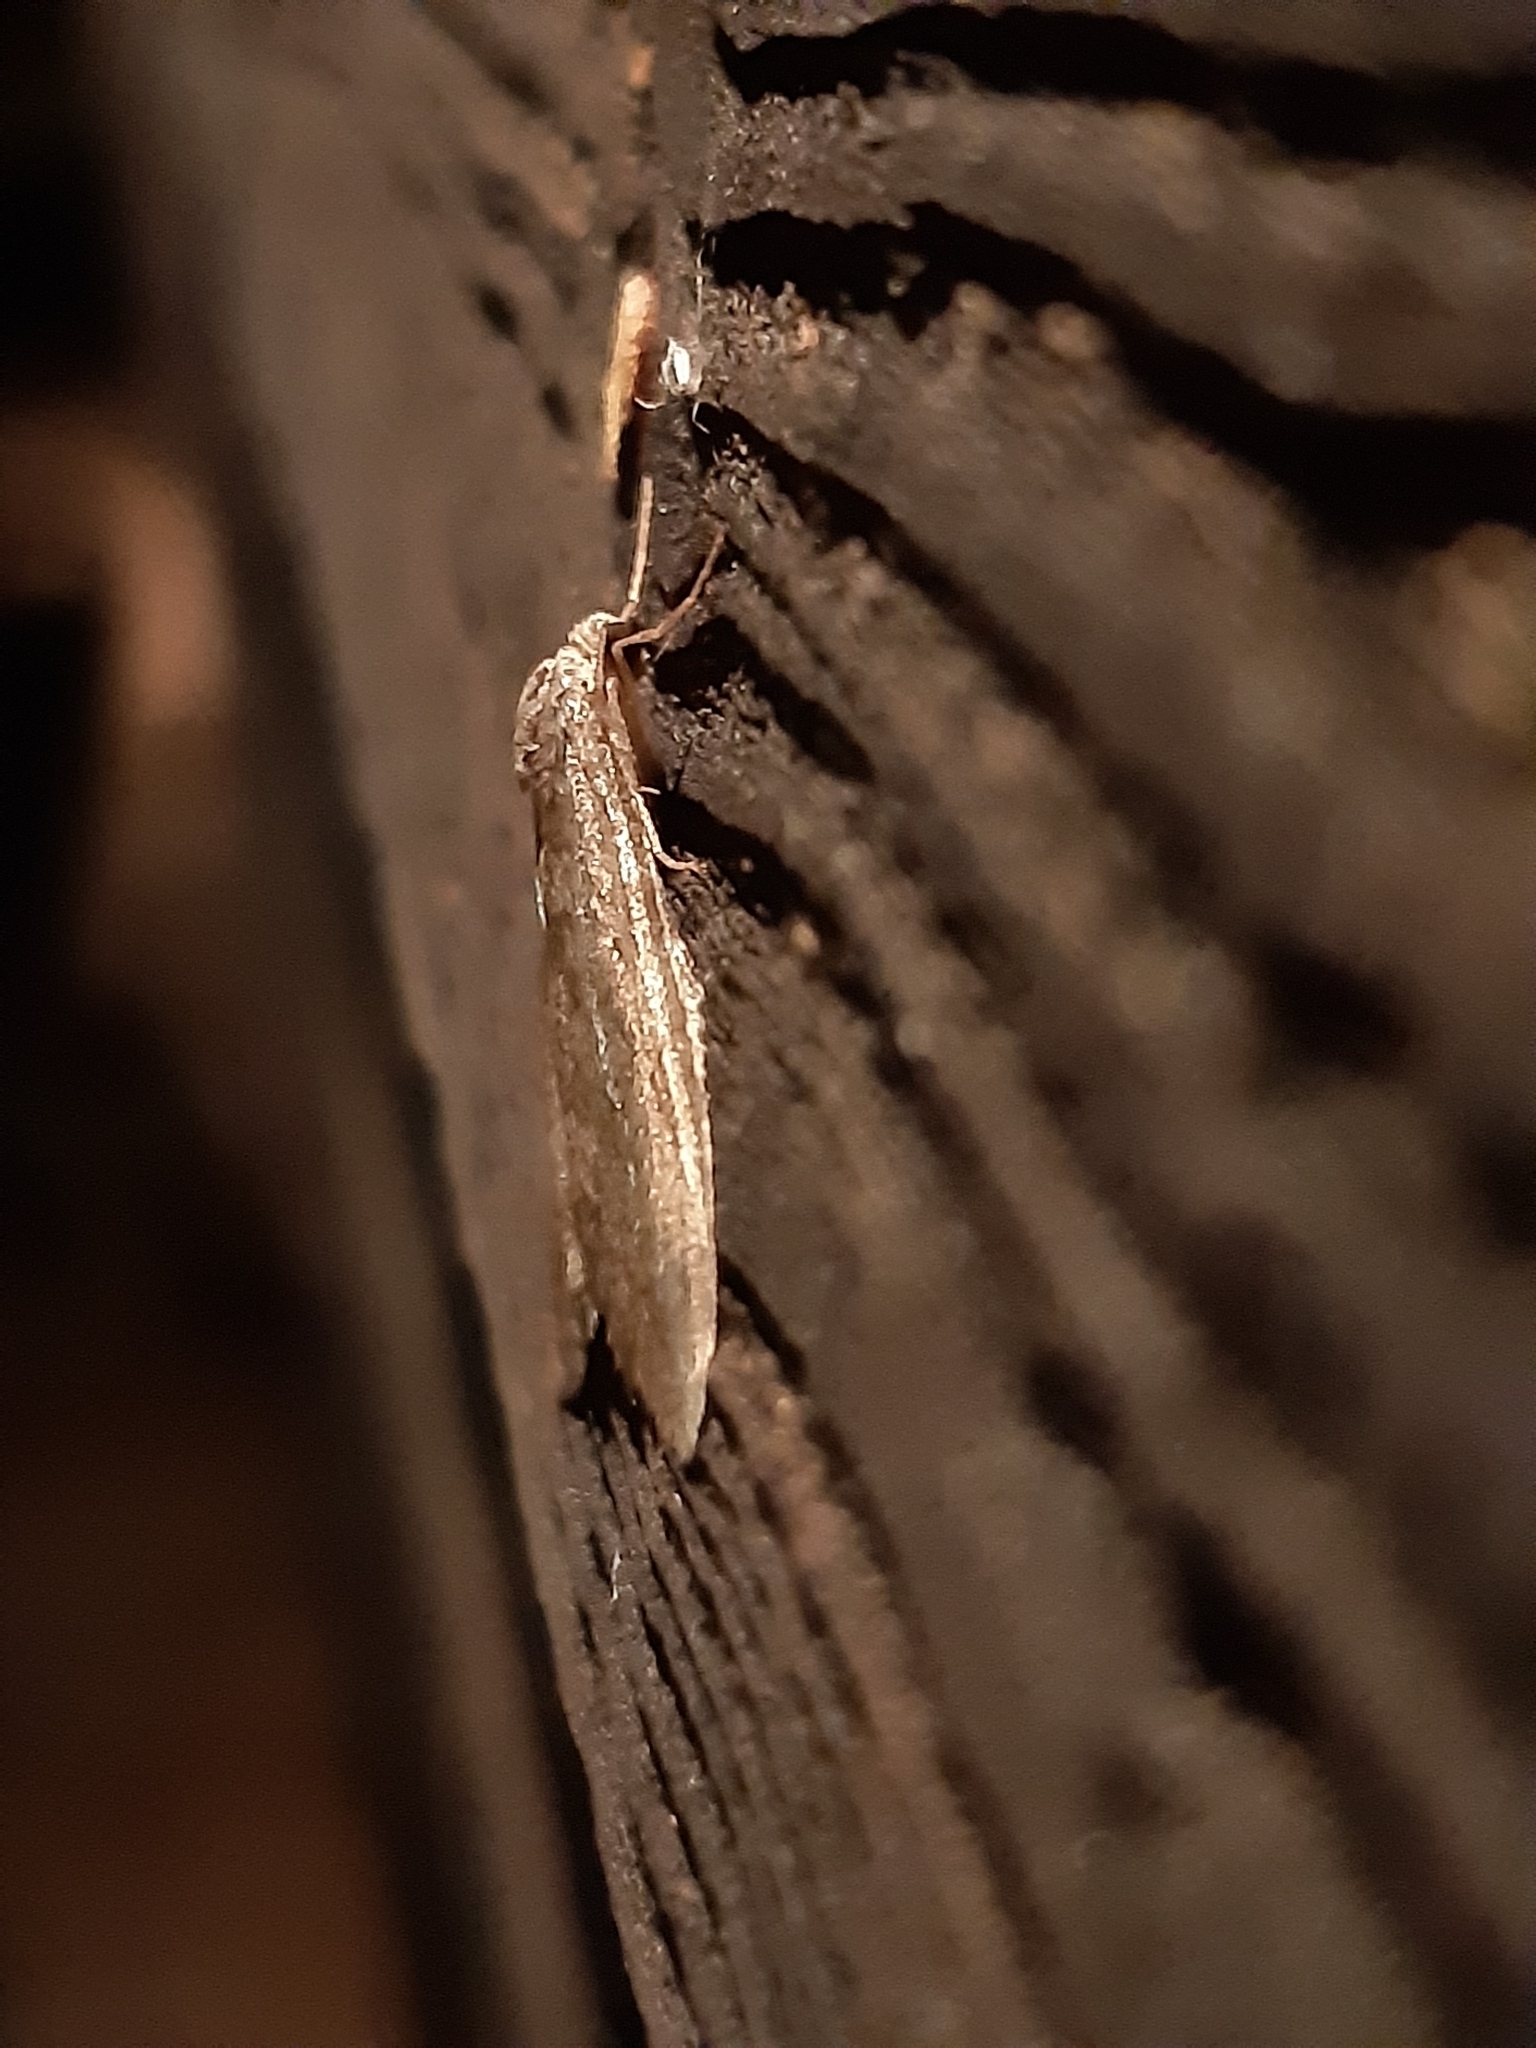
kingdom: Animalia
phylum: Arthropoda
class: Insecta
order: Lepidoptera
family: Geometridae
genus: Operophtera
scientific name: Operophtera brumata
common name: Winter moth
